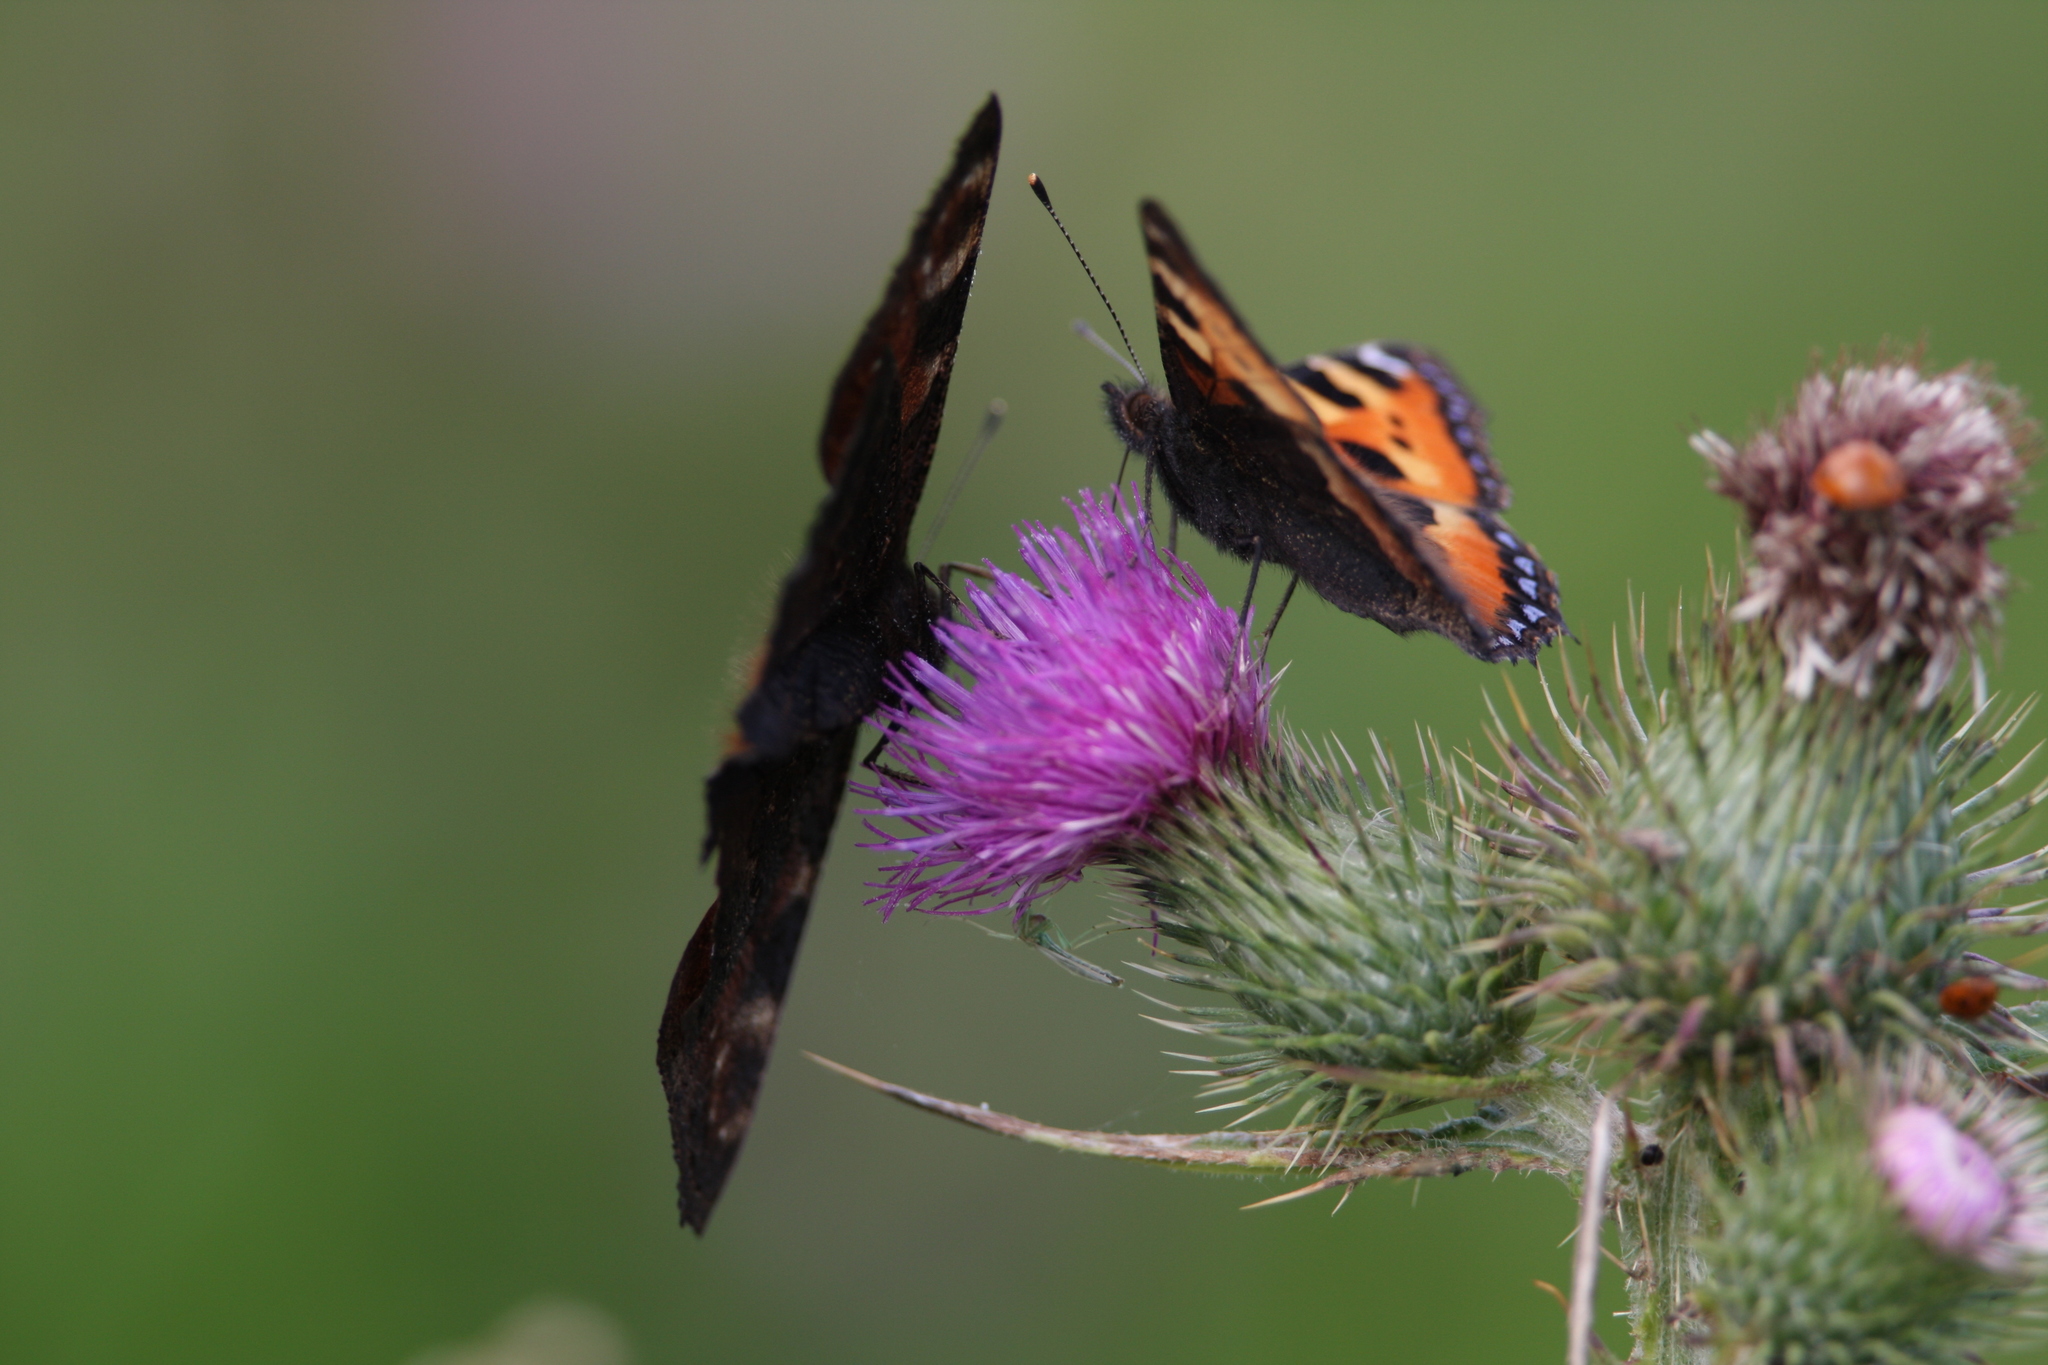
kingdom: Animalia
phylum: Arthropoda
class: Insecta
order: Lepidoptera
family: Nymphalidae
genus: Aglais
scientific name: Aglais urticae
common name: Small tortoiseshell
